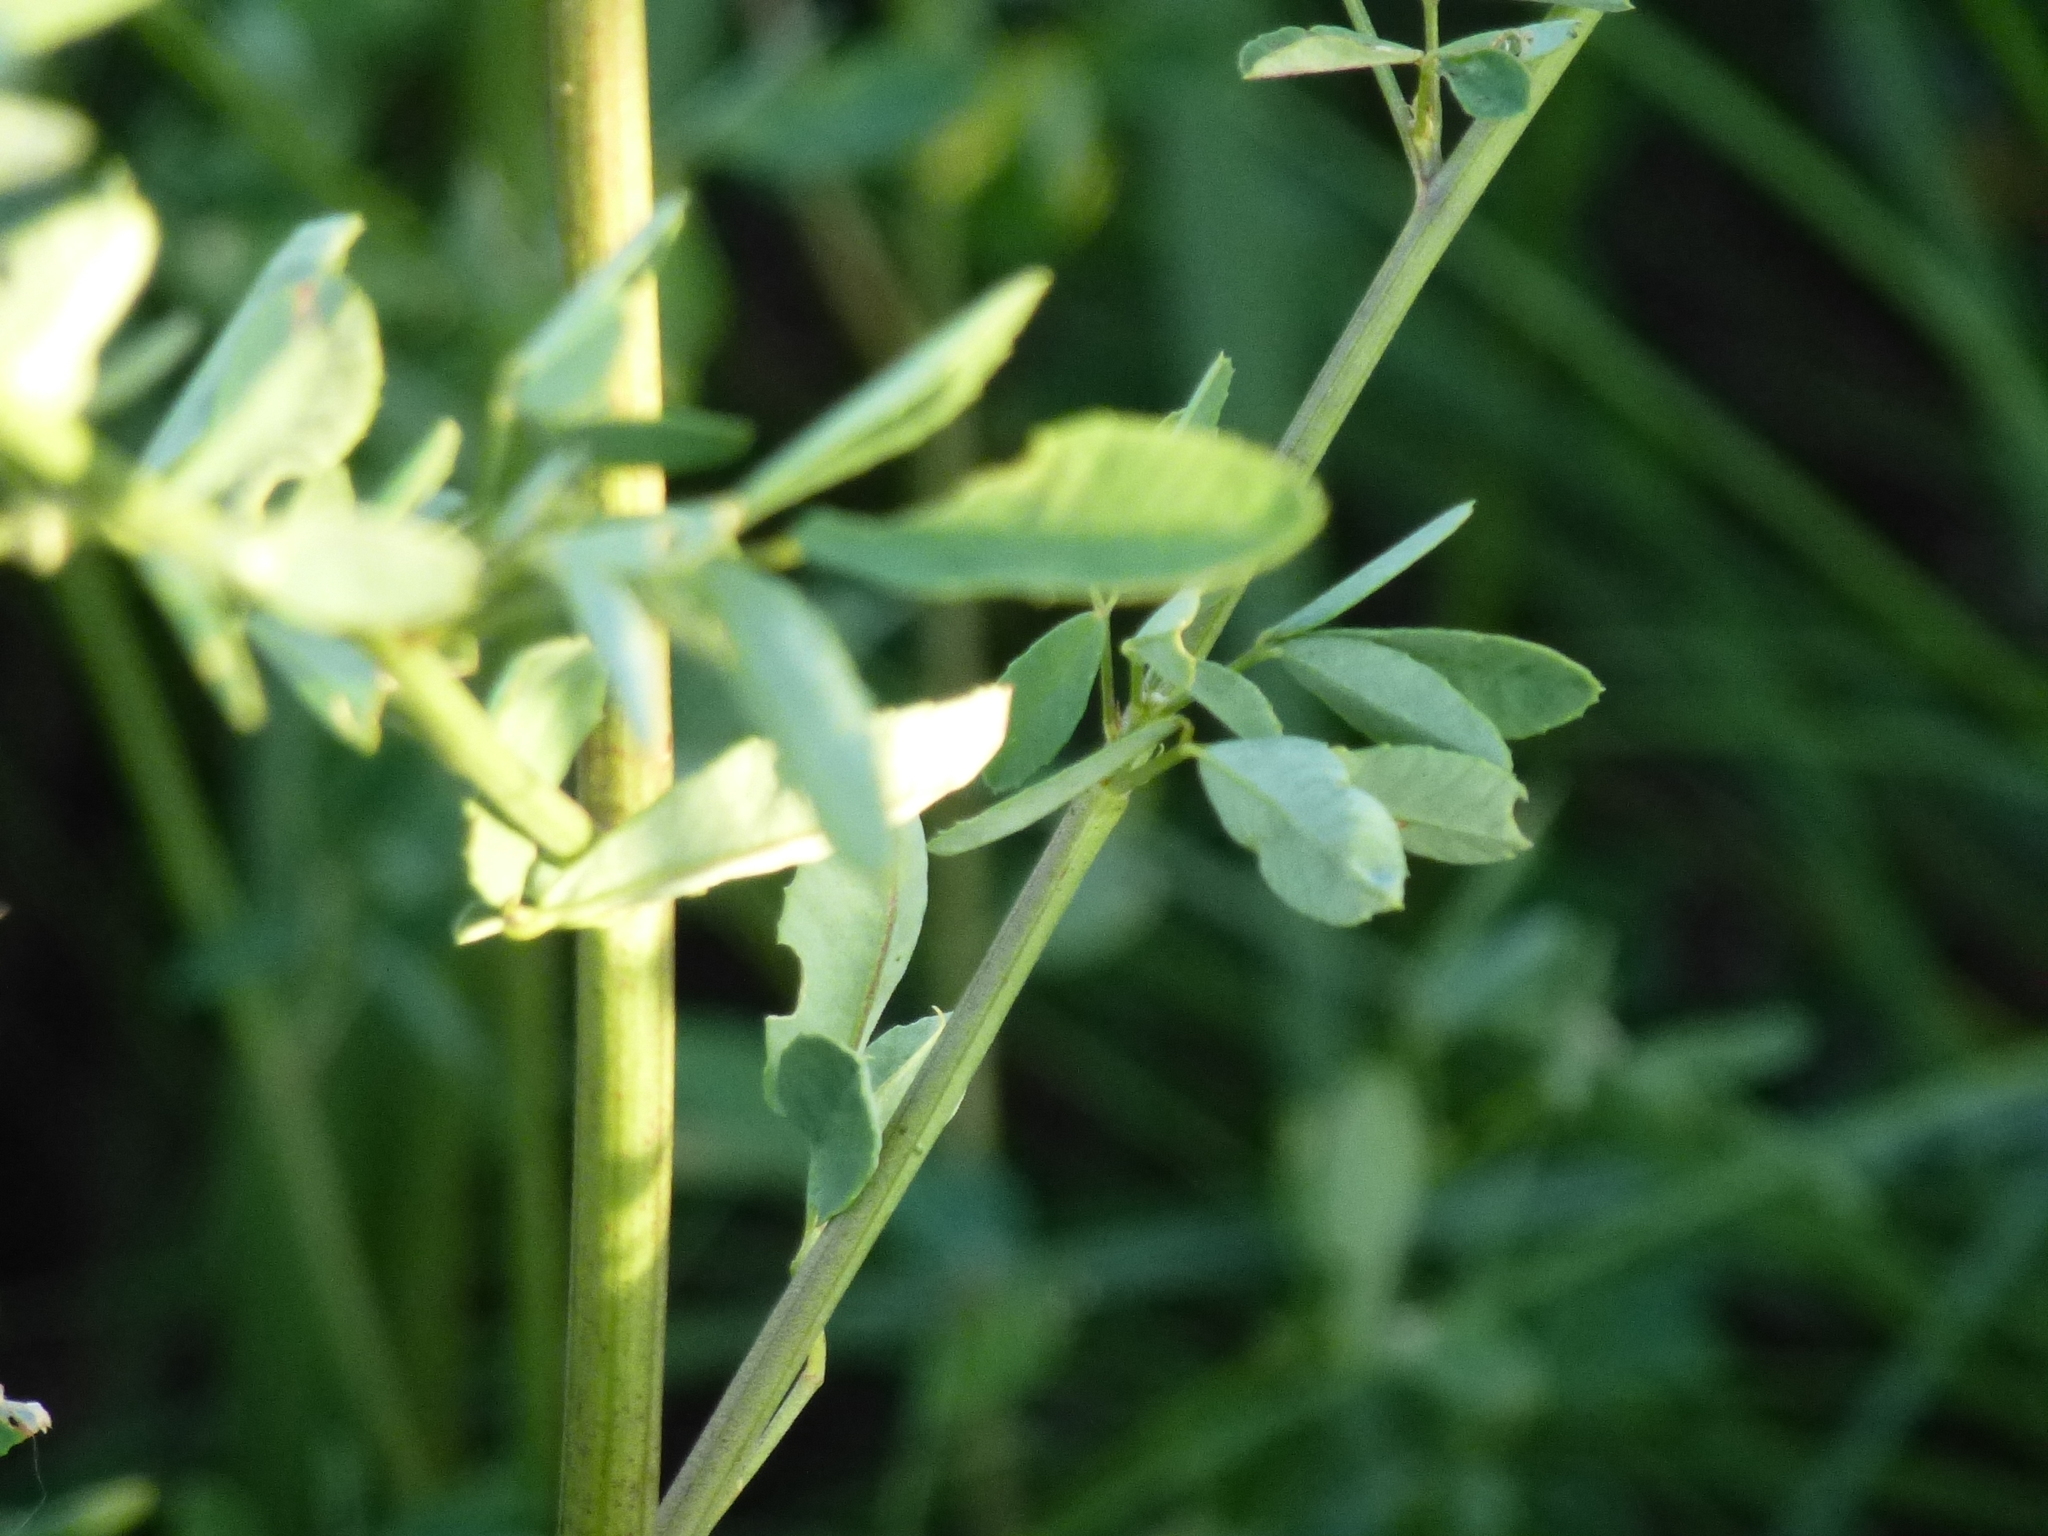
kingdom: Plantae
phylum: Tracheophyta
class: Magnoliopsida
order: Fabales
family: Fabaceae
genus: Melilotus
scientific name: Melilotus albus
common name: White melilot
